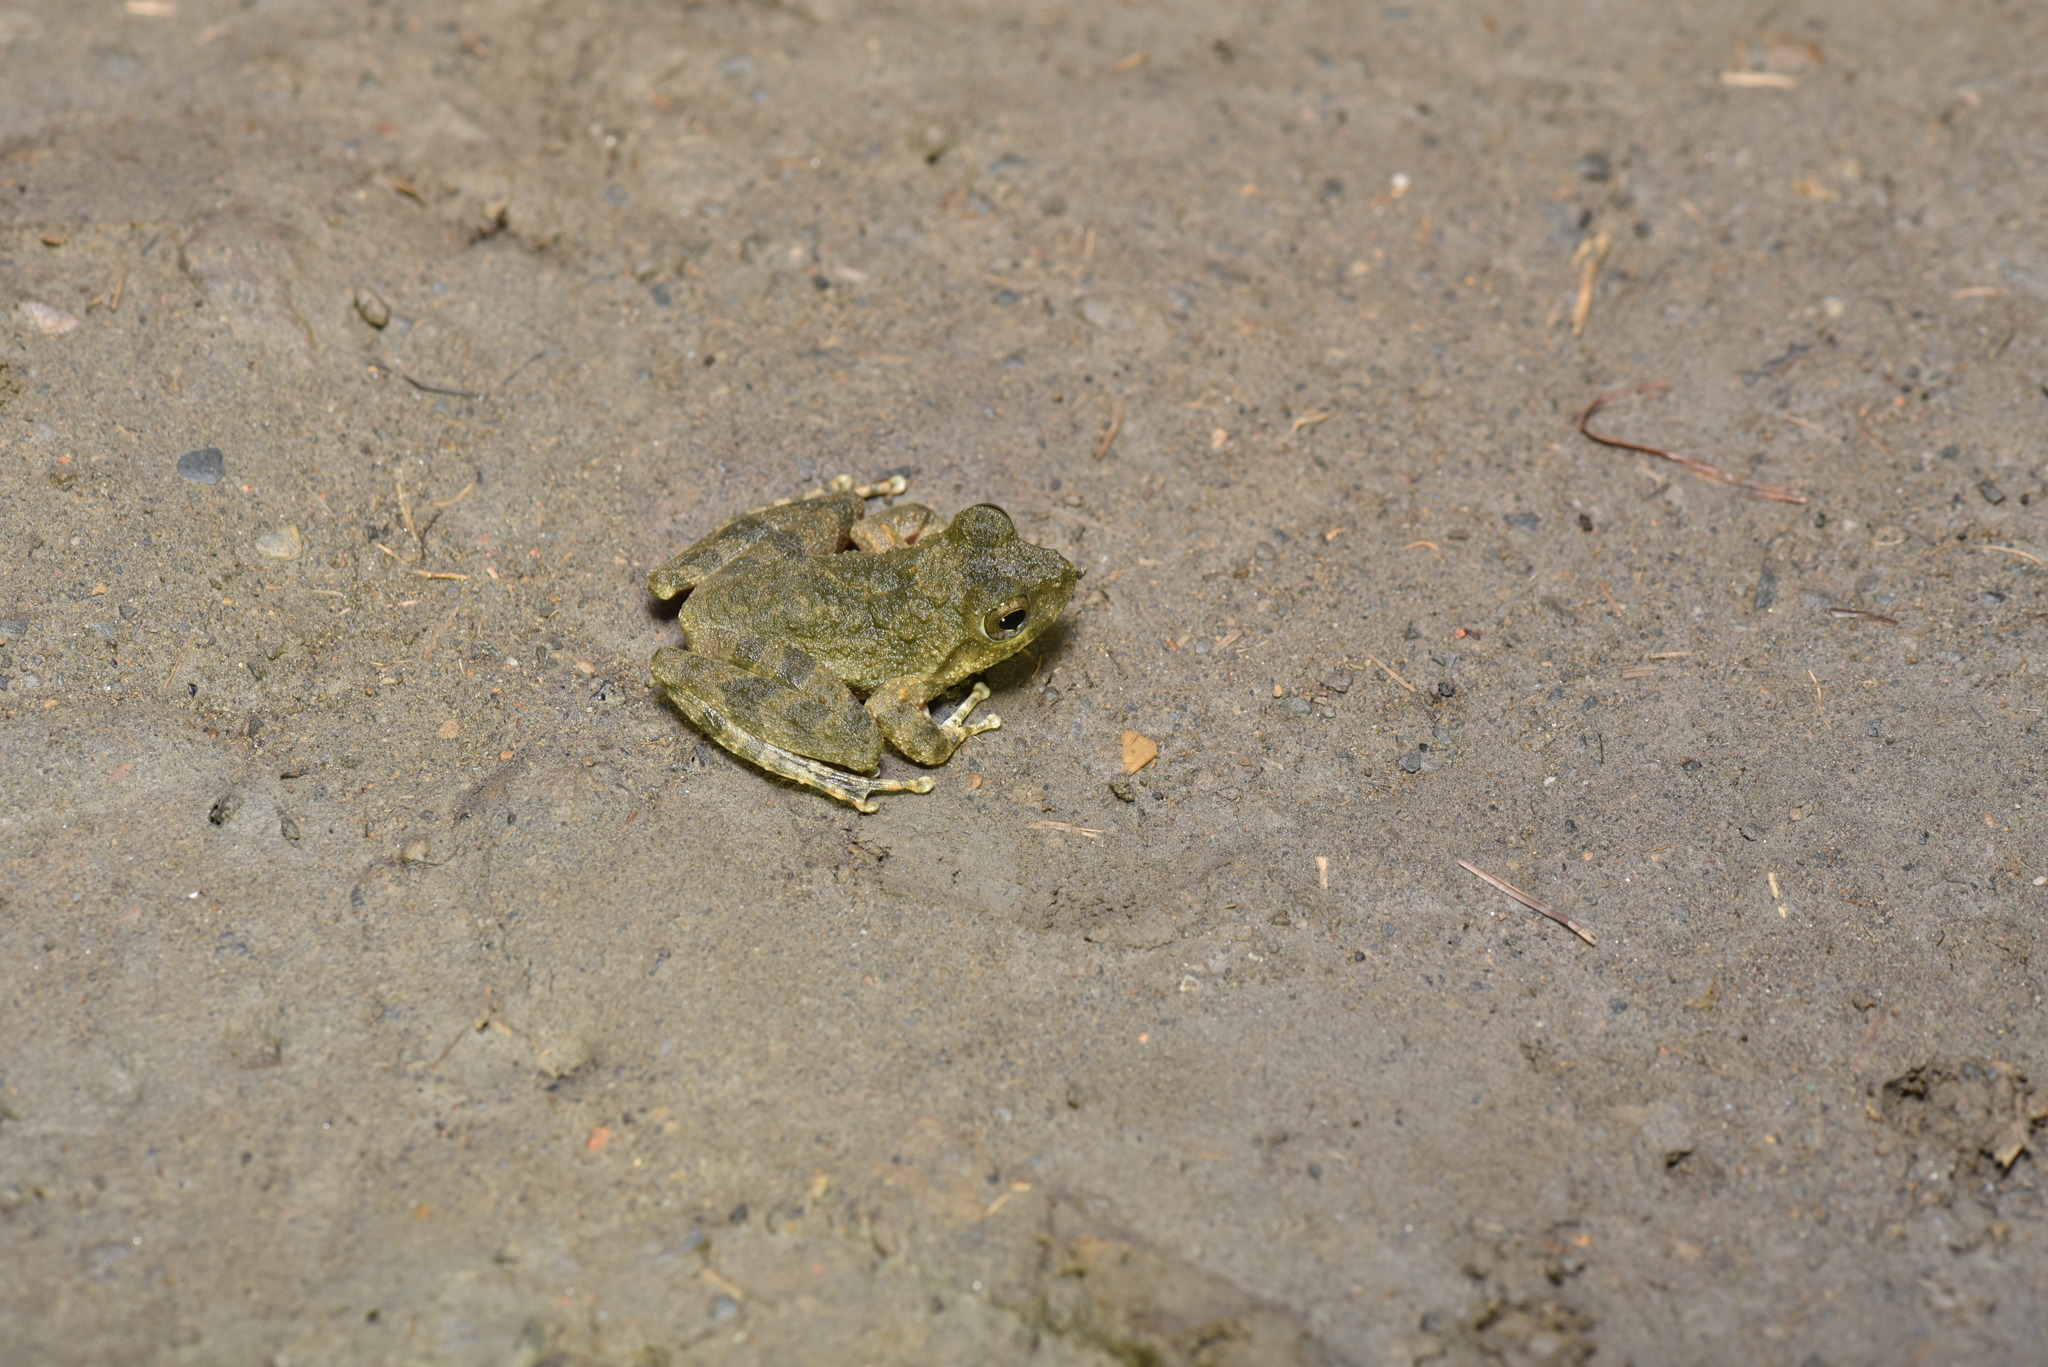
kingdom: Animalia
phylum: Chordata
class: Amphibia
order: Anura
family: Rhacophoridae
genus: Buergeria
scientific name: Buergeria otai
